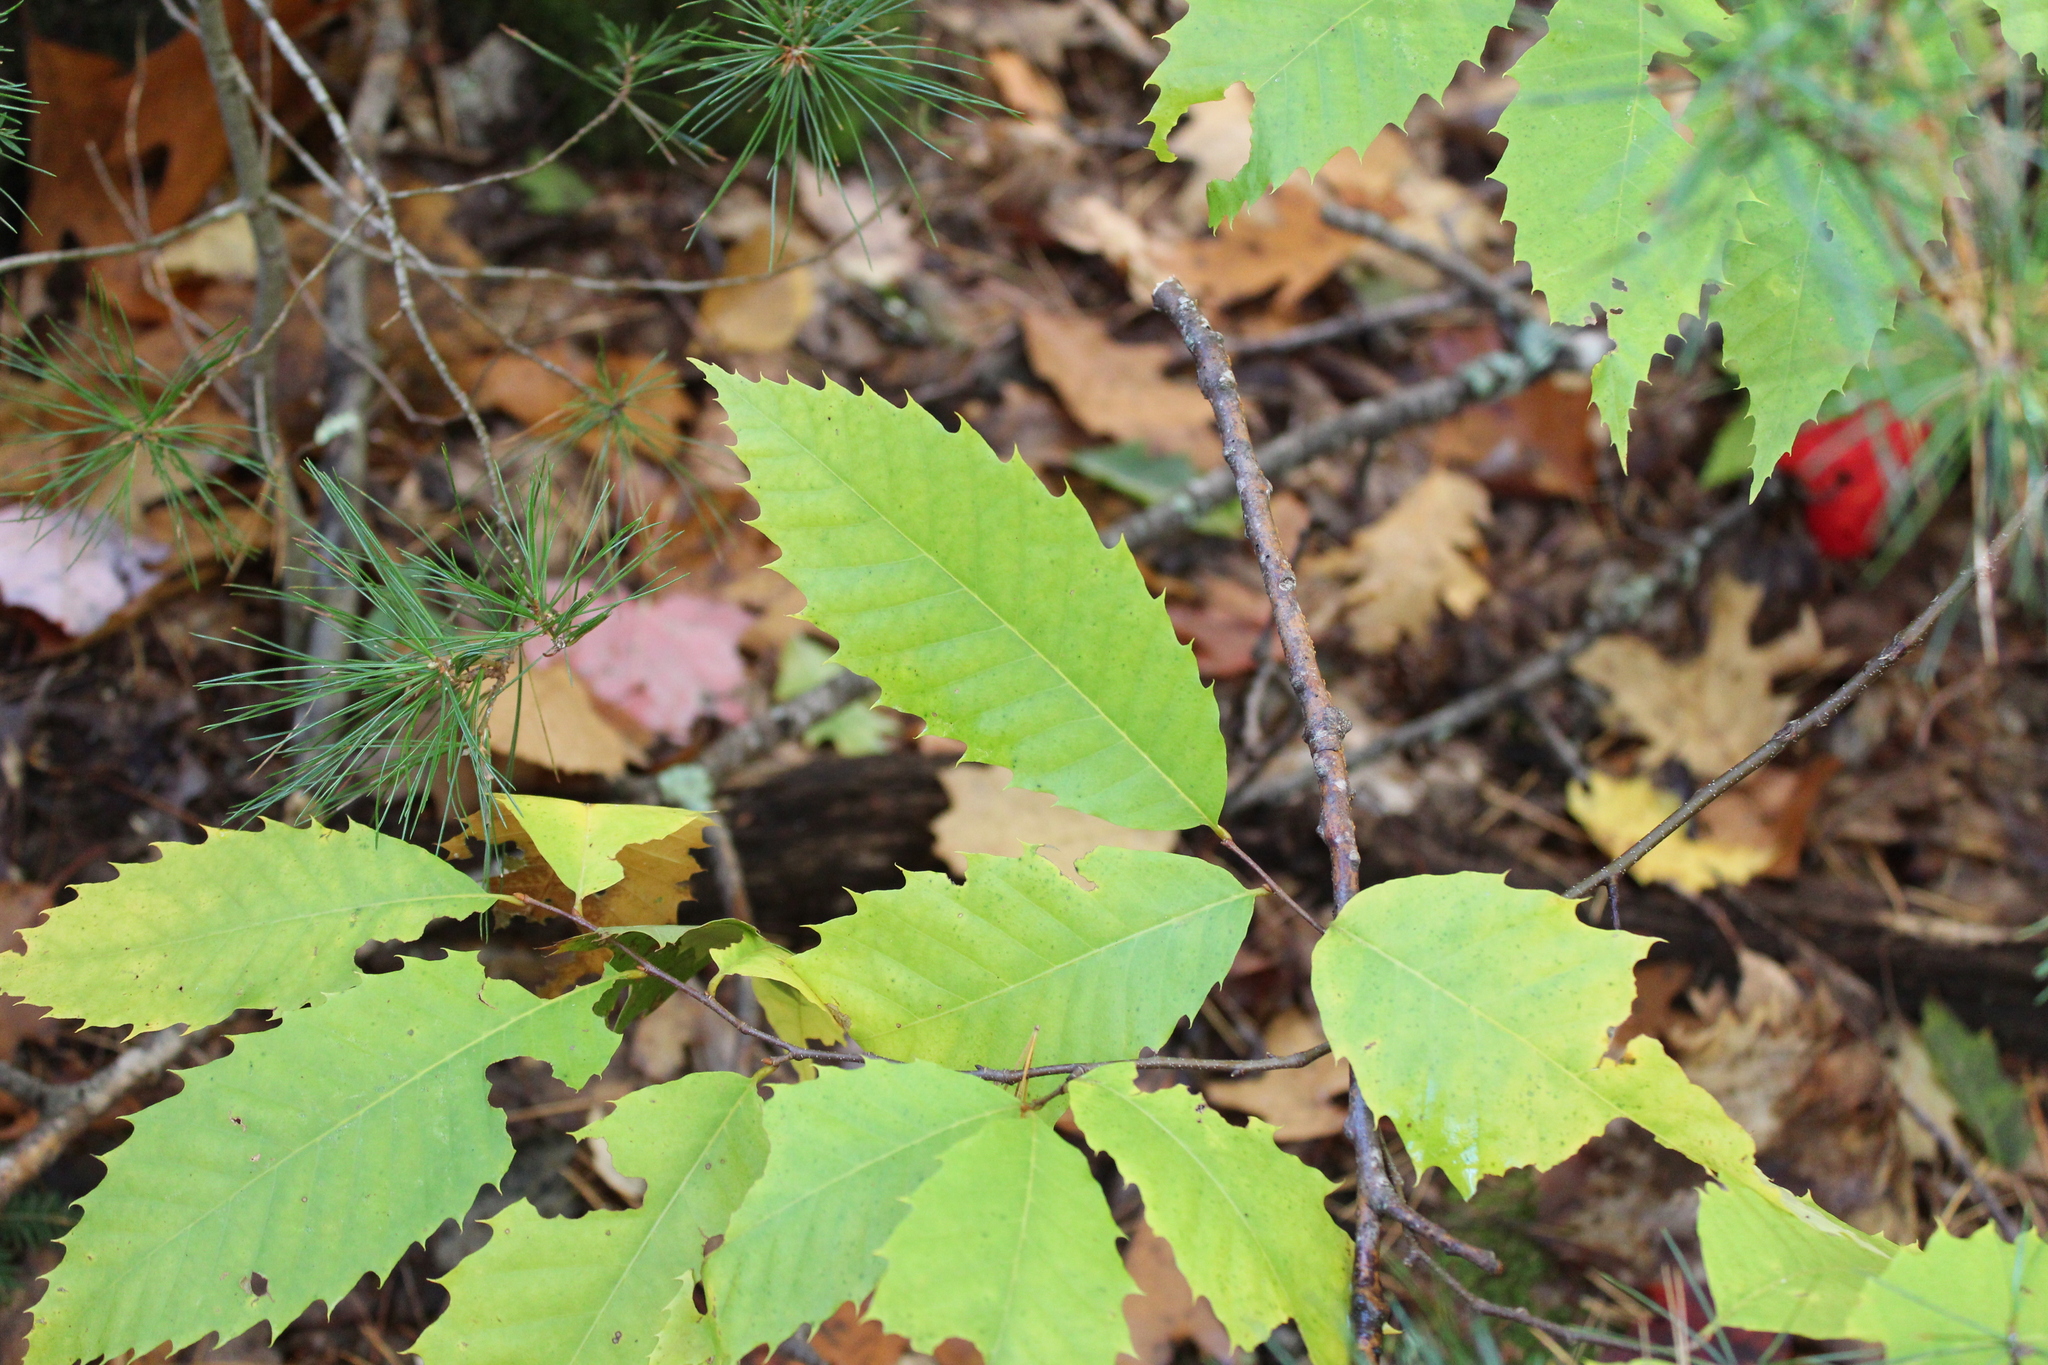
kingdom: Plantae
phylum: Tracheophyta
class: Magnoliopsida
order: Fagales
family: Fagaceae
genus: Castanea
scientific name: Castanea dentata
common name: American chestnut
